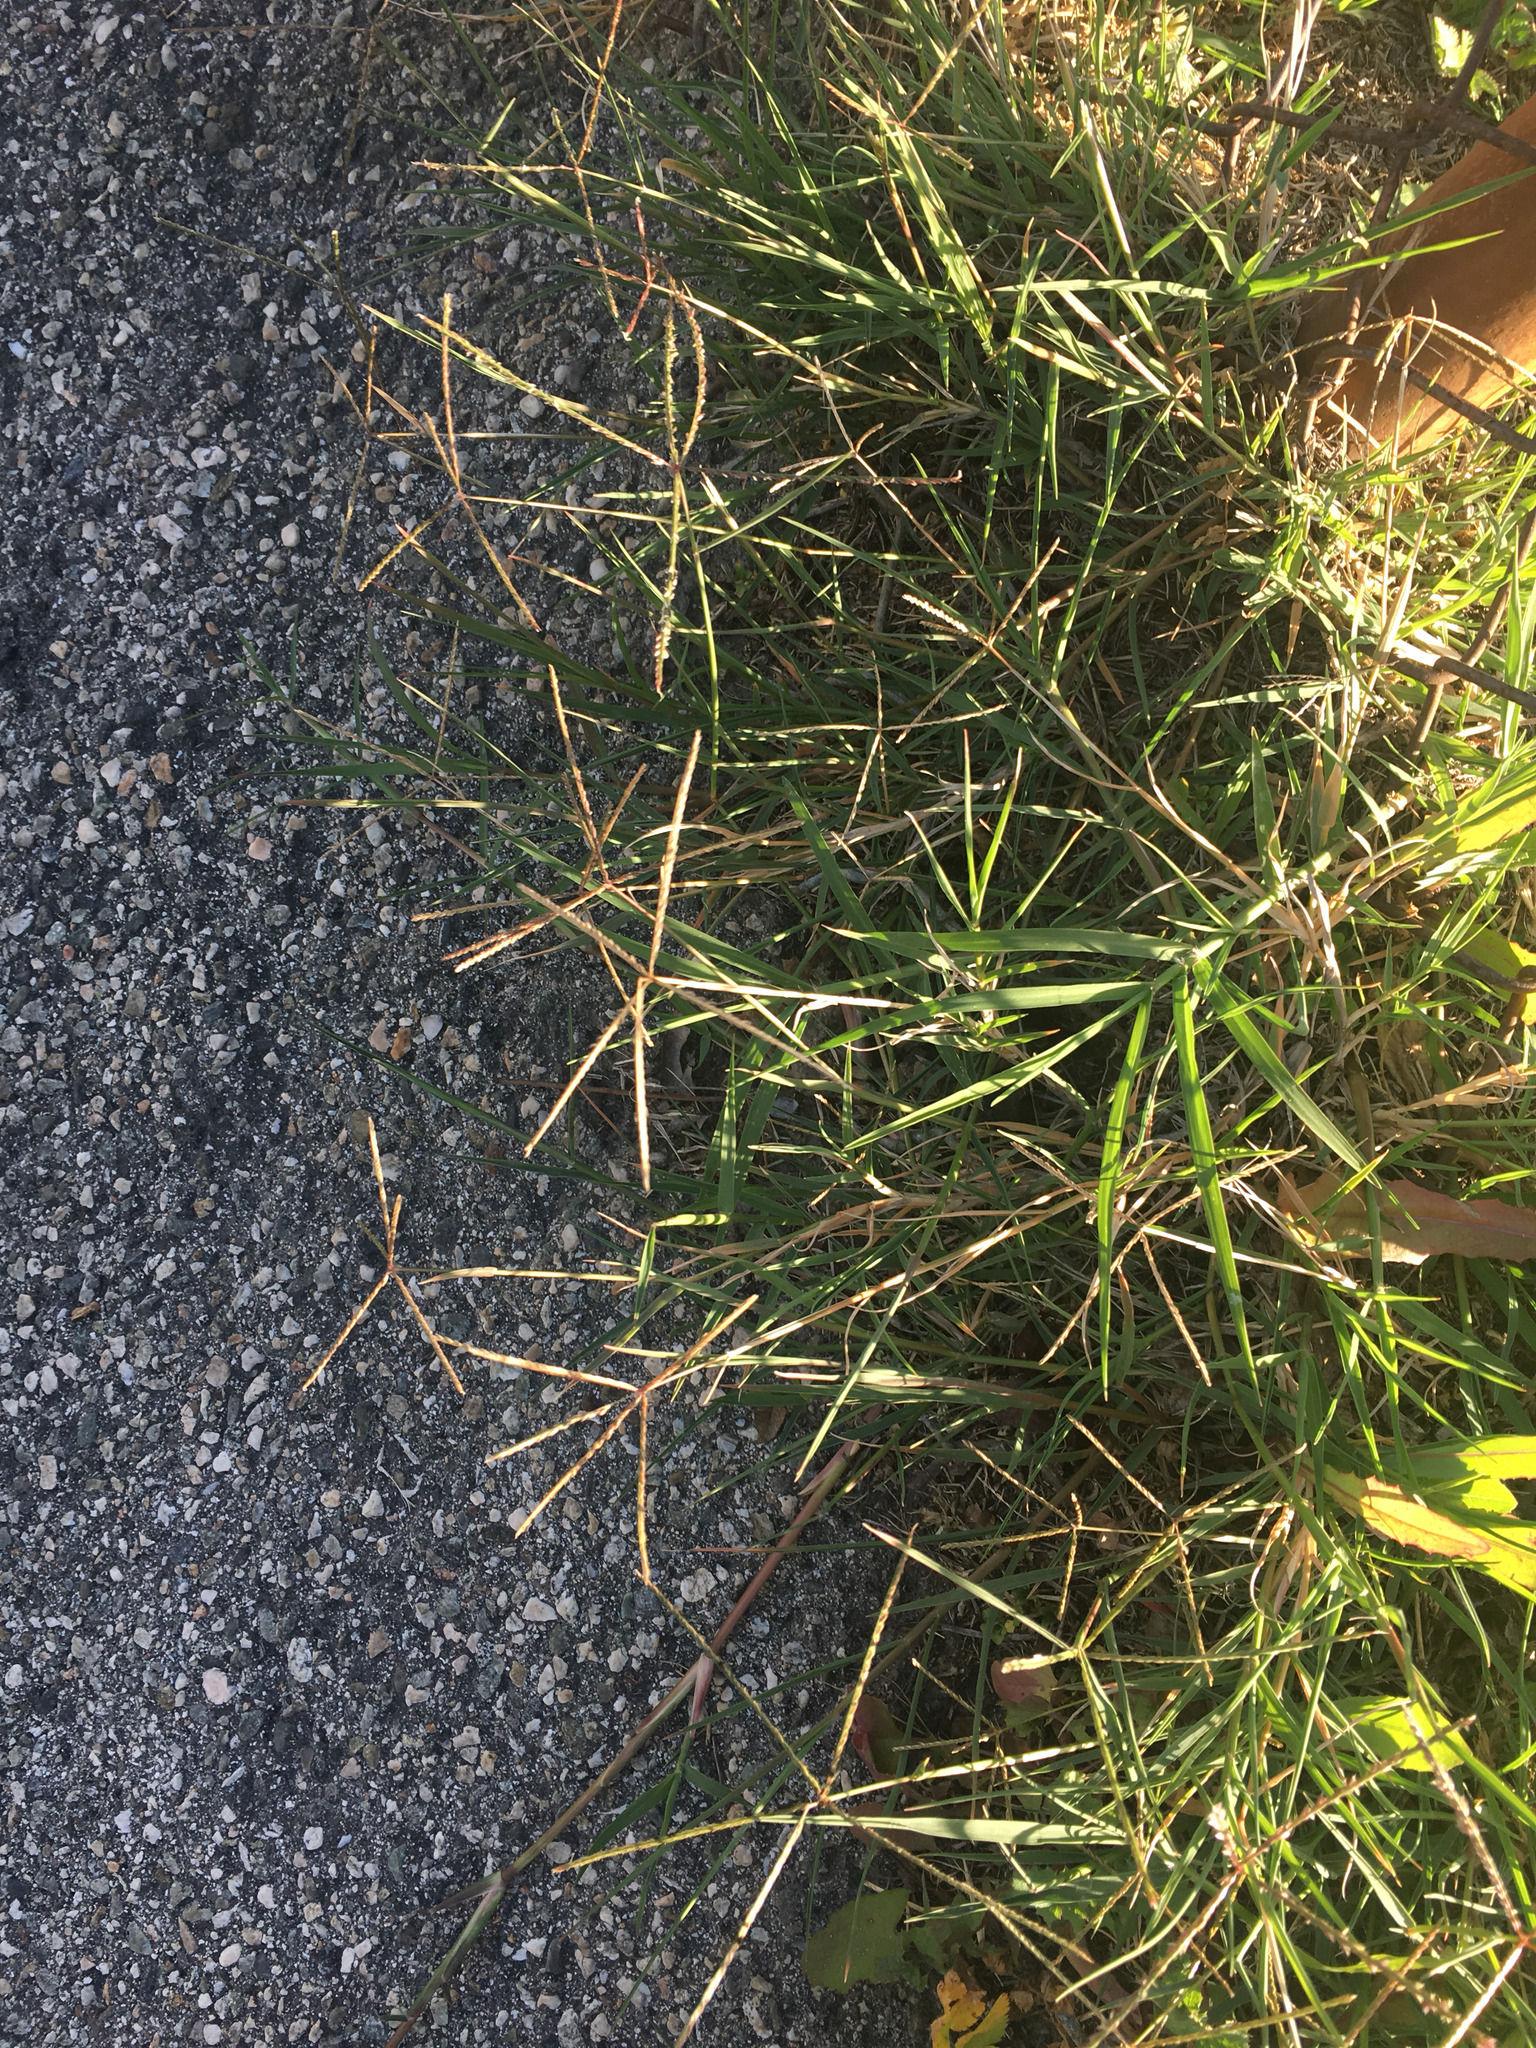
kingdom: Plantae
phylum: Tracheophyta
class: Liliopsida
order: Poales
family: Poaceae
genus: Cynodon
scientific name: Cynodon dactylon
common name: Bermuda grass
